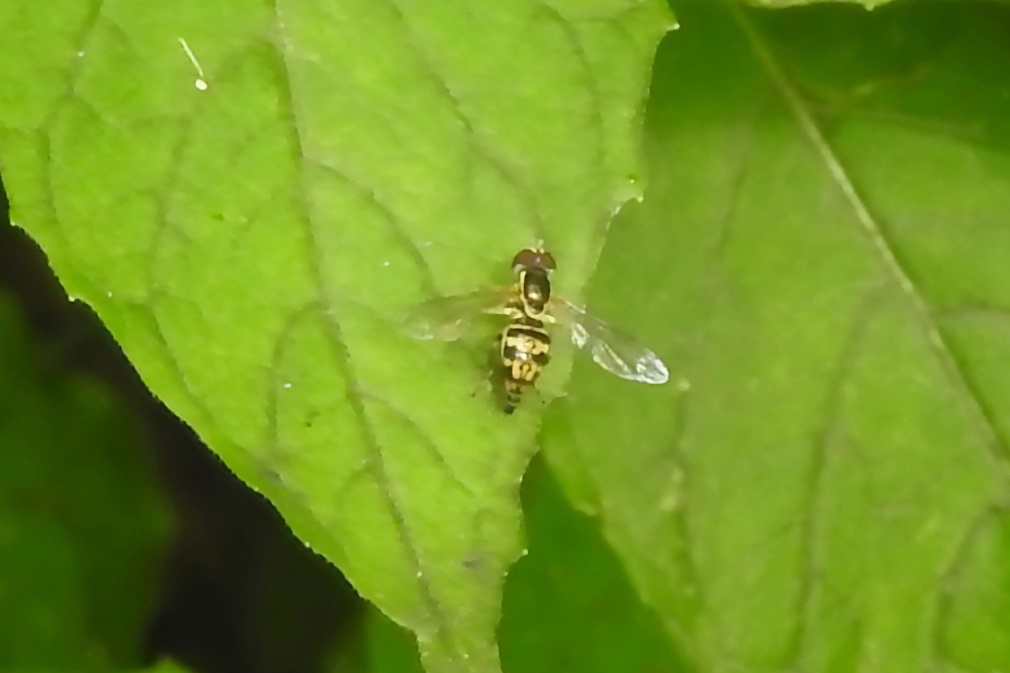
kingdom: Animalia
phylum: Arthropoda
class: Insecta
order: Diptera
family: Syrphidae
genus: Toxomerus
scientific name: Toxomerus geminatus
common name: Eastern calligrapher
